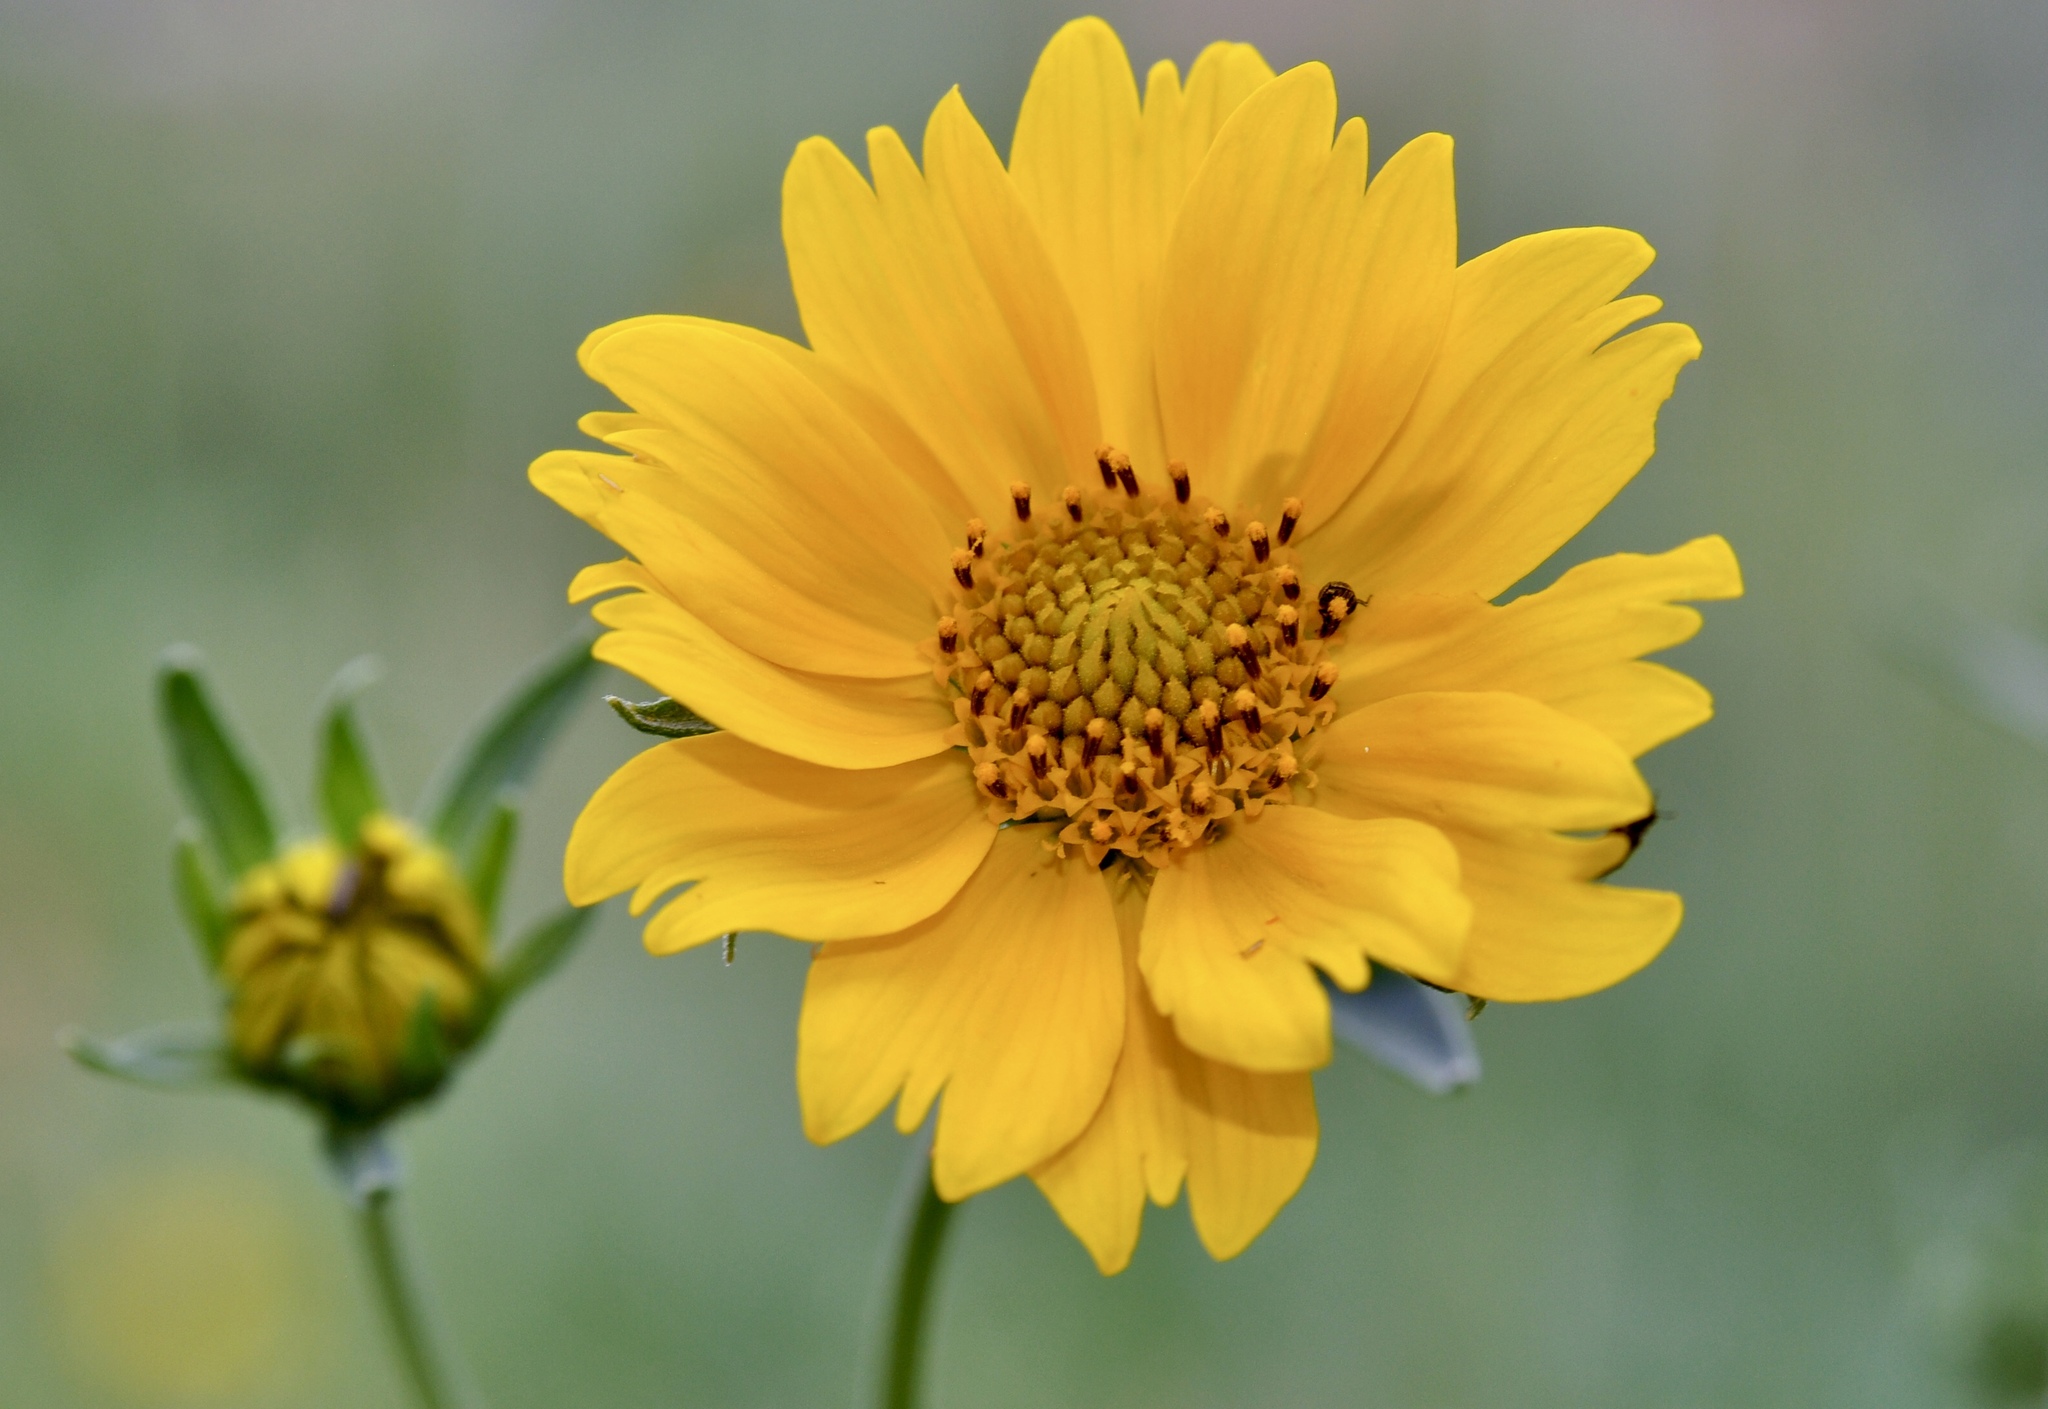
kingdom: Plantae
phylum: Tracheophyta
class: Magnoliopsida
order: Asterales
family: Asteraceae
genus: Verbesina
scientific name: Verbesina encelioides
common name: Golden crownbeard
